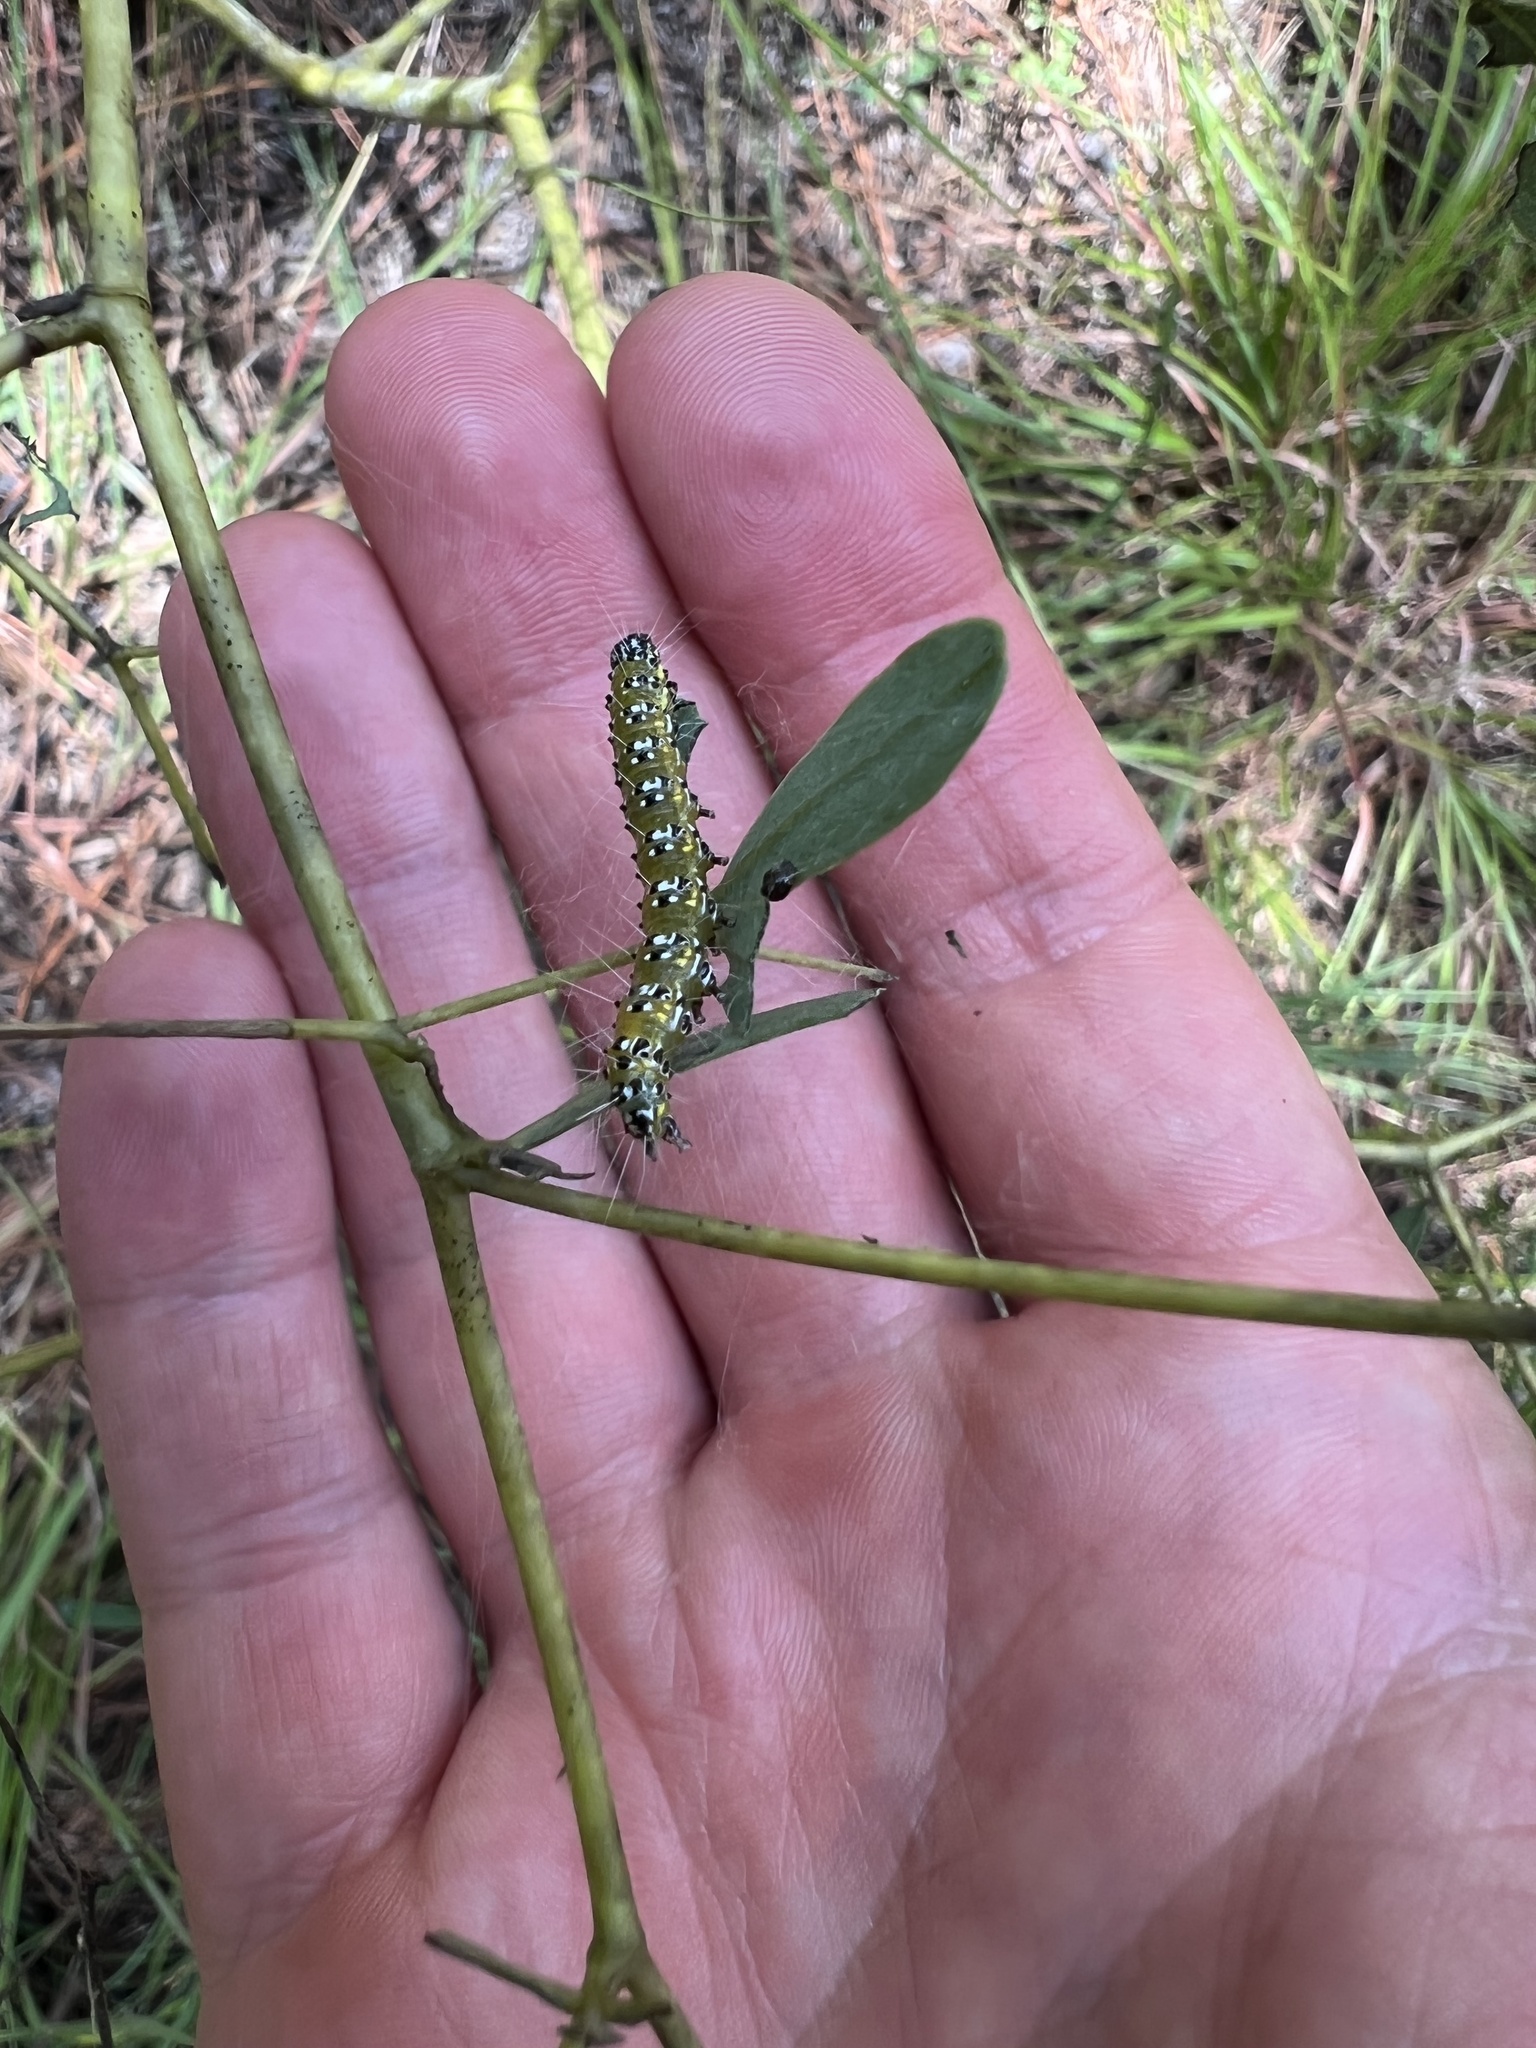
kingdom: Animalia
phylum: Arthropoda
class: Insecta
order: Lepidoptera
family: Crambidae
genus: Uresiphita
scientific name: Uresiphita reversalis
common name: Genista broom moth
